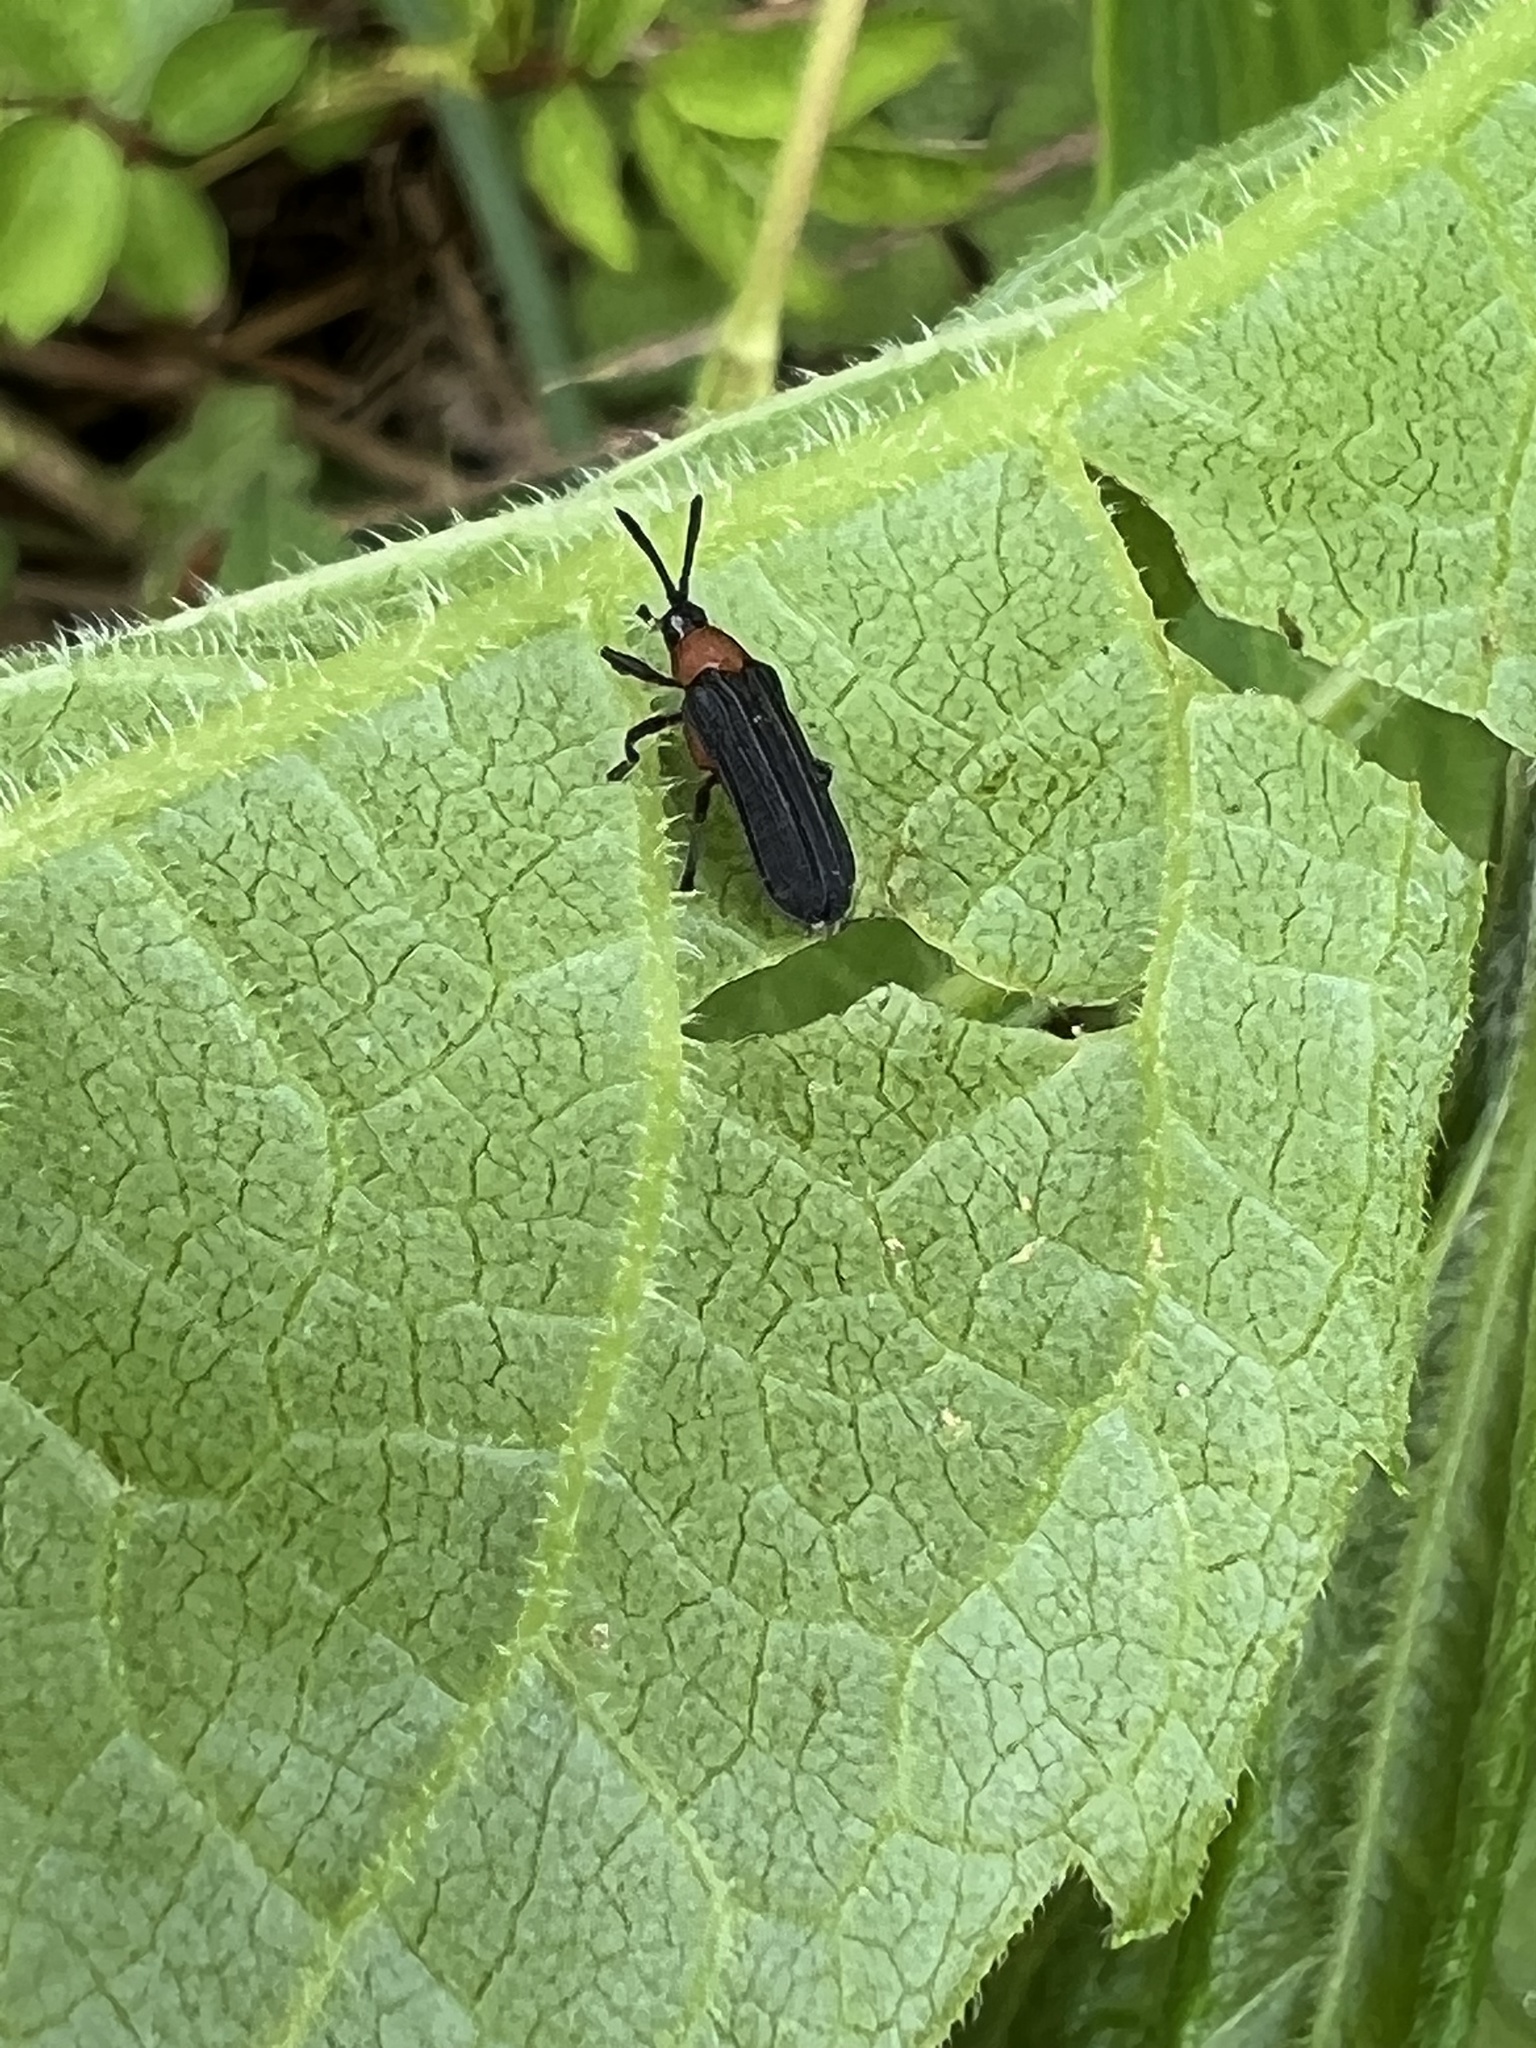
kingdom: Animalia
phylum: Arthropoda
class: Insecta
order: Coleoptera
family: Chrysomelidae
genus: Chalepus
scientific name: Chalepus bicolor
